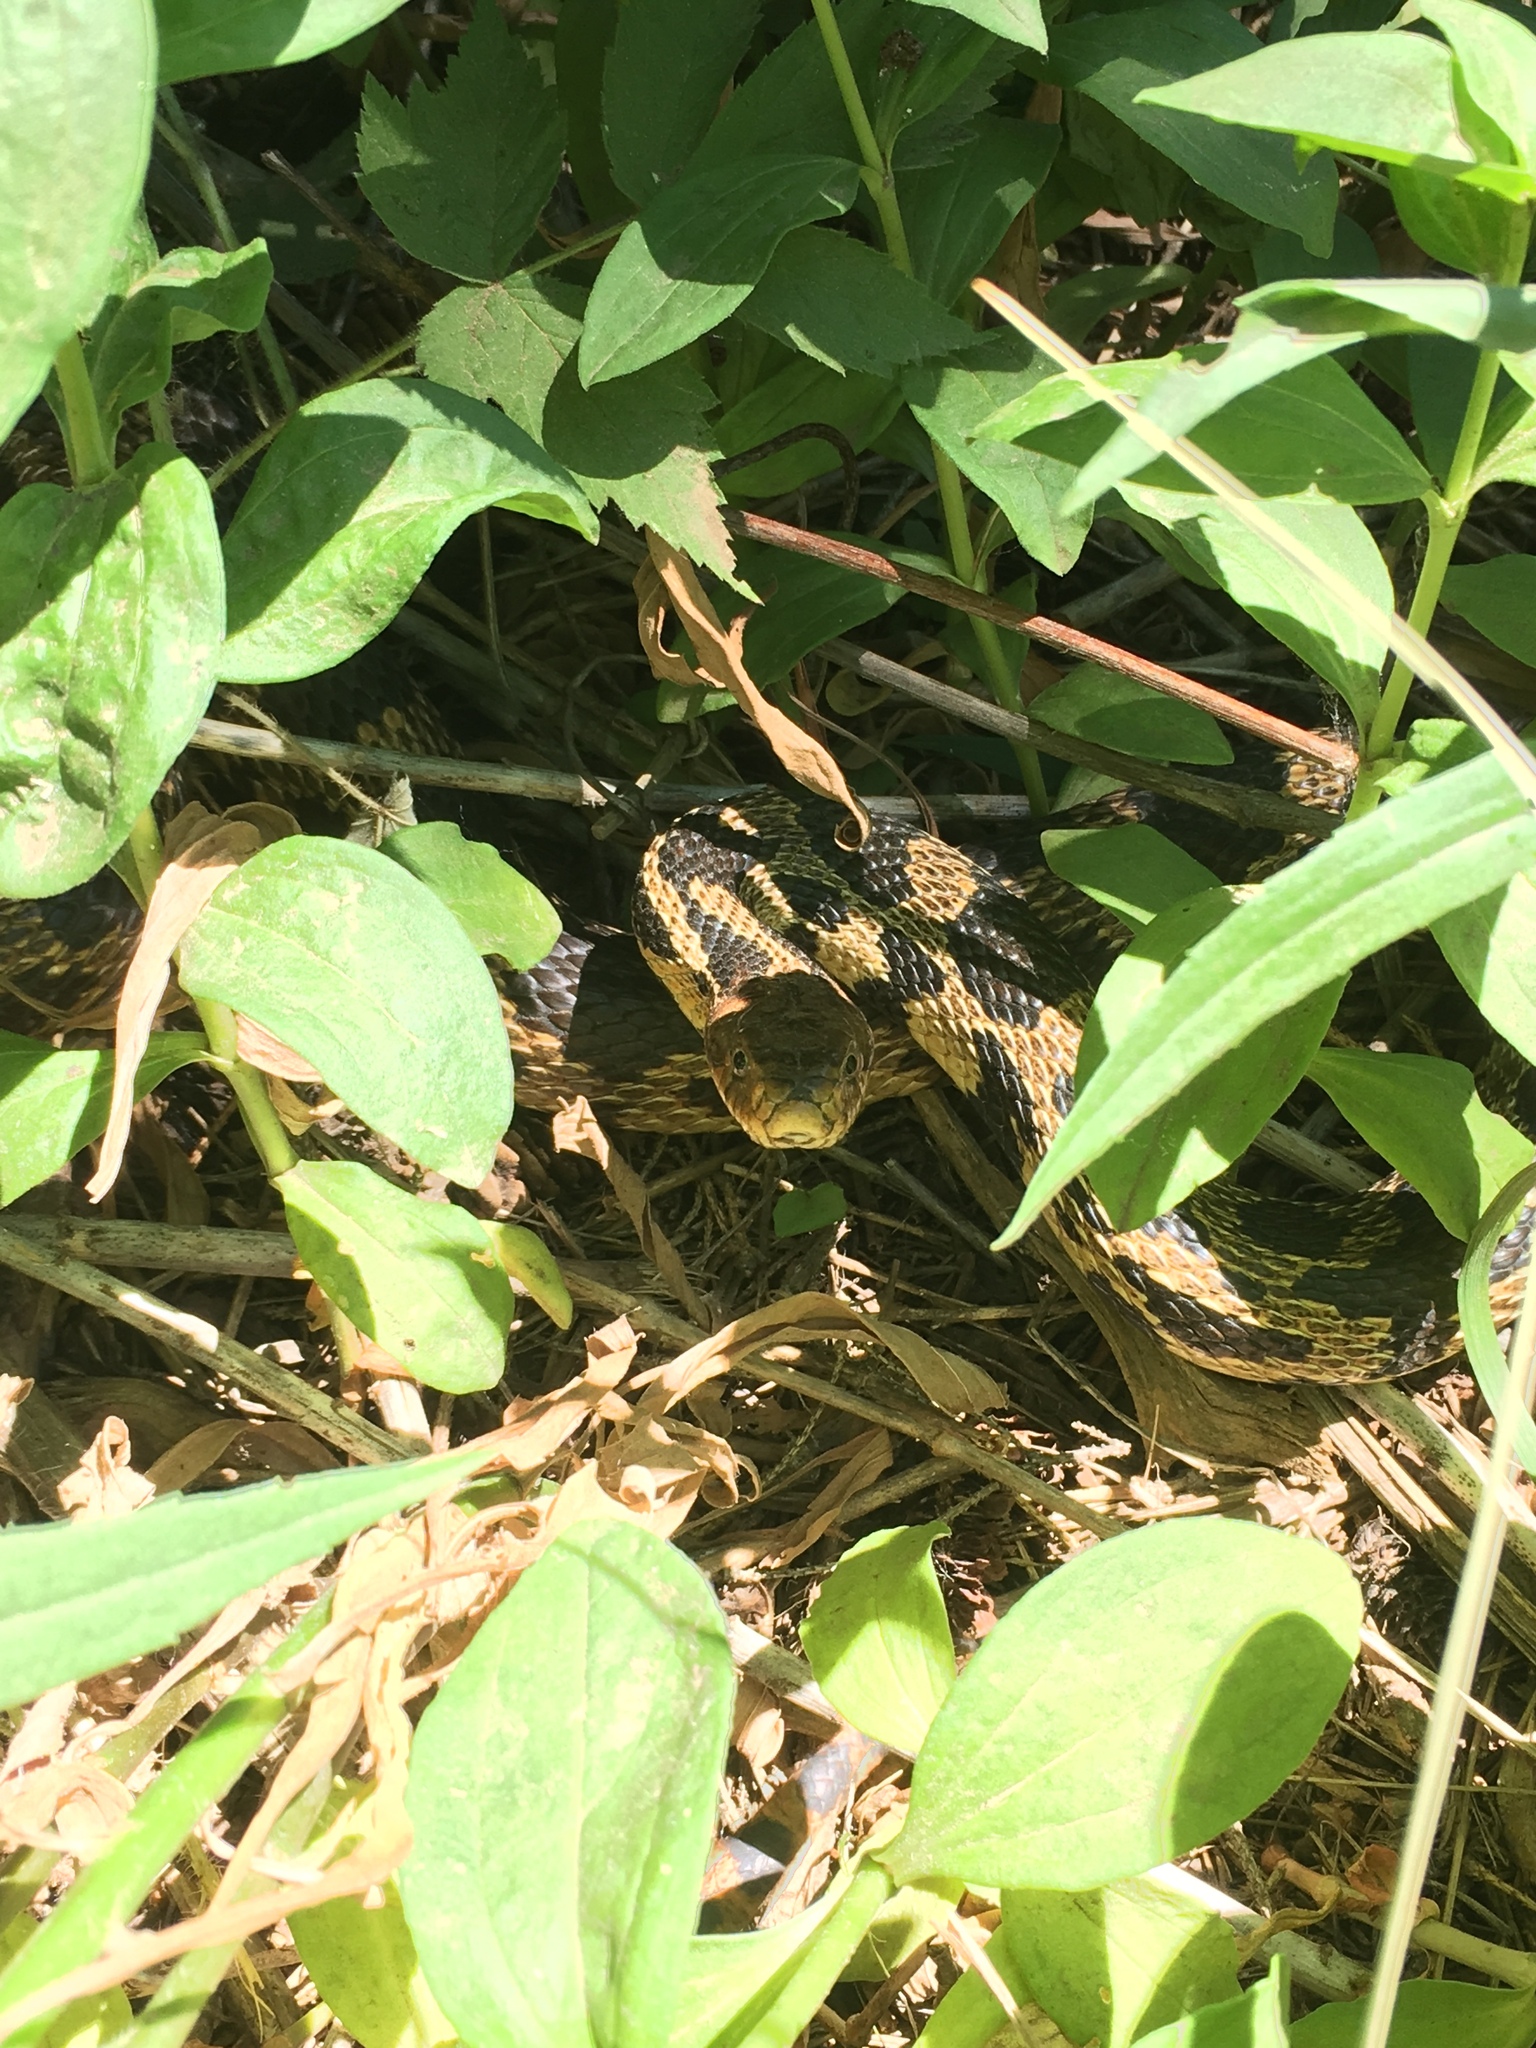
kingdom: Animalia
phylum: Chordata
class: Squamata
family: Colubridae
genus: Pantherophis
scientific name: Pantherophis vulpinus
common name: Eastern fox snake
